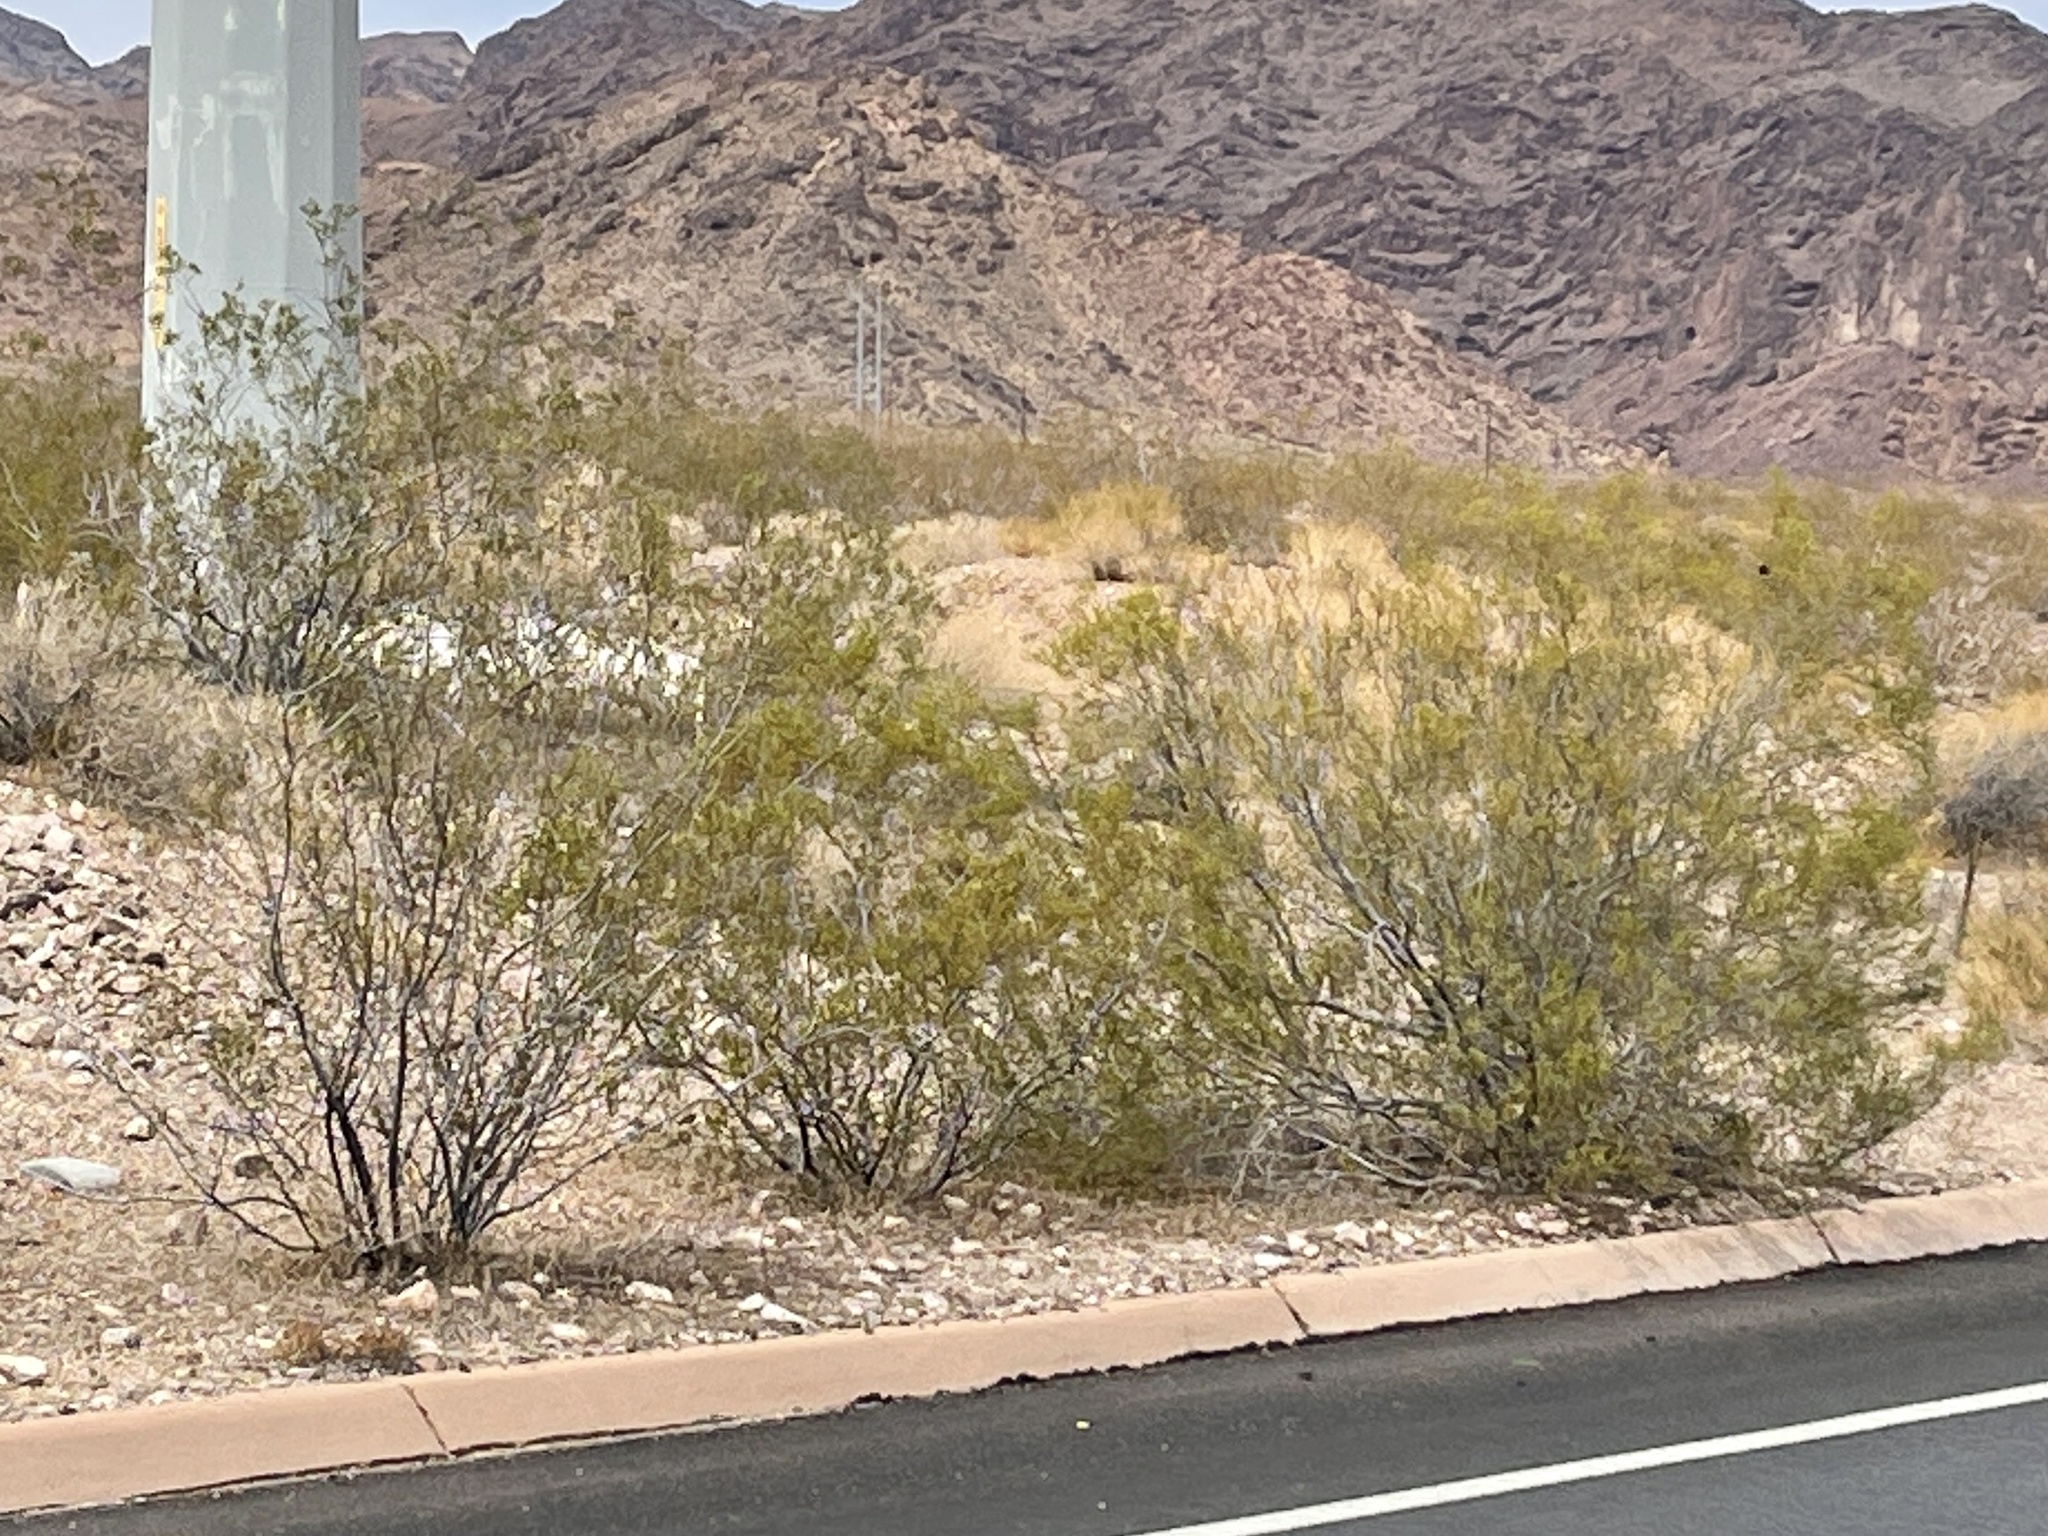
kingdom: Plantae
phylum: Tracheophyta
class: Magnoliopsida
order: Zygophyllales
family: Zygophyllaceae
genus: Larrea
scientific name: Larrea tridentata
